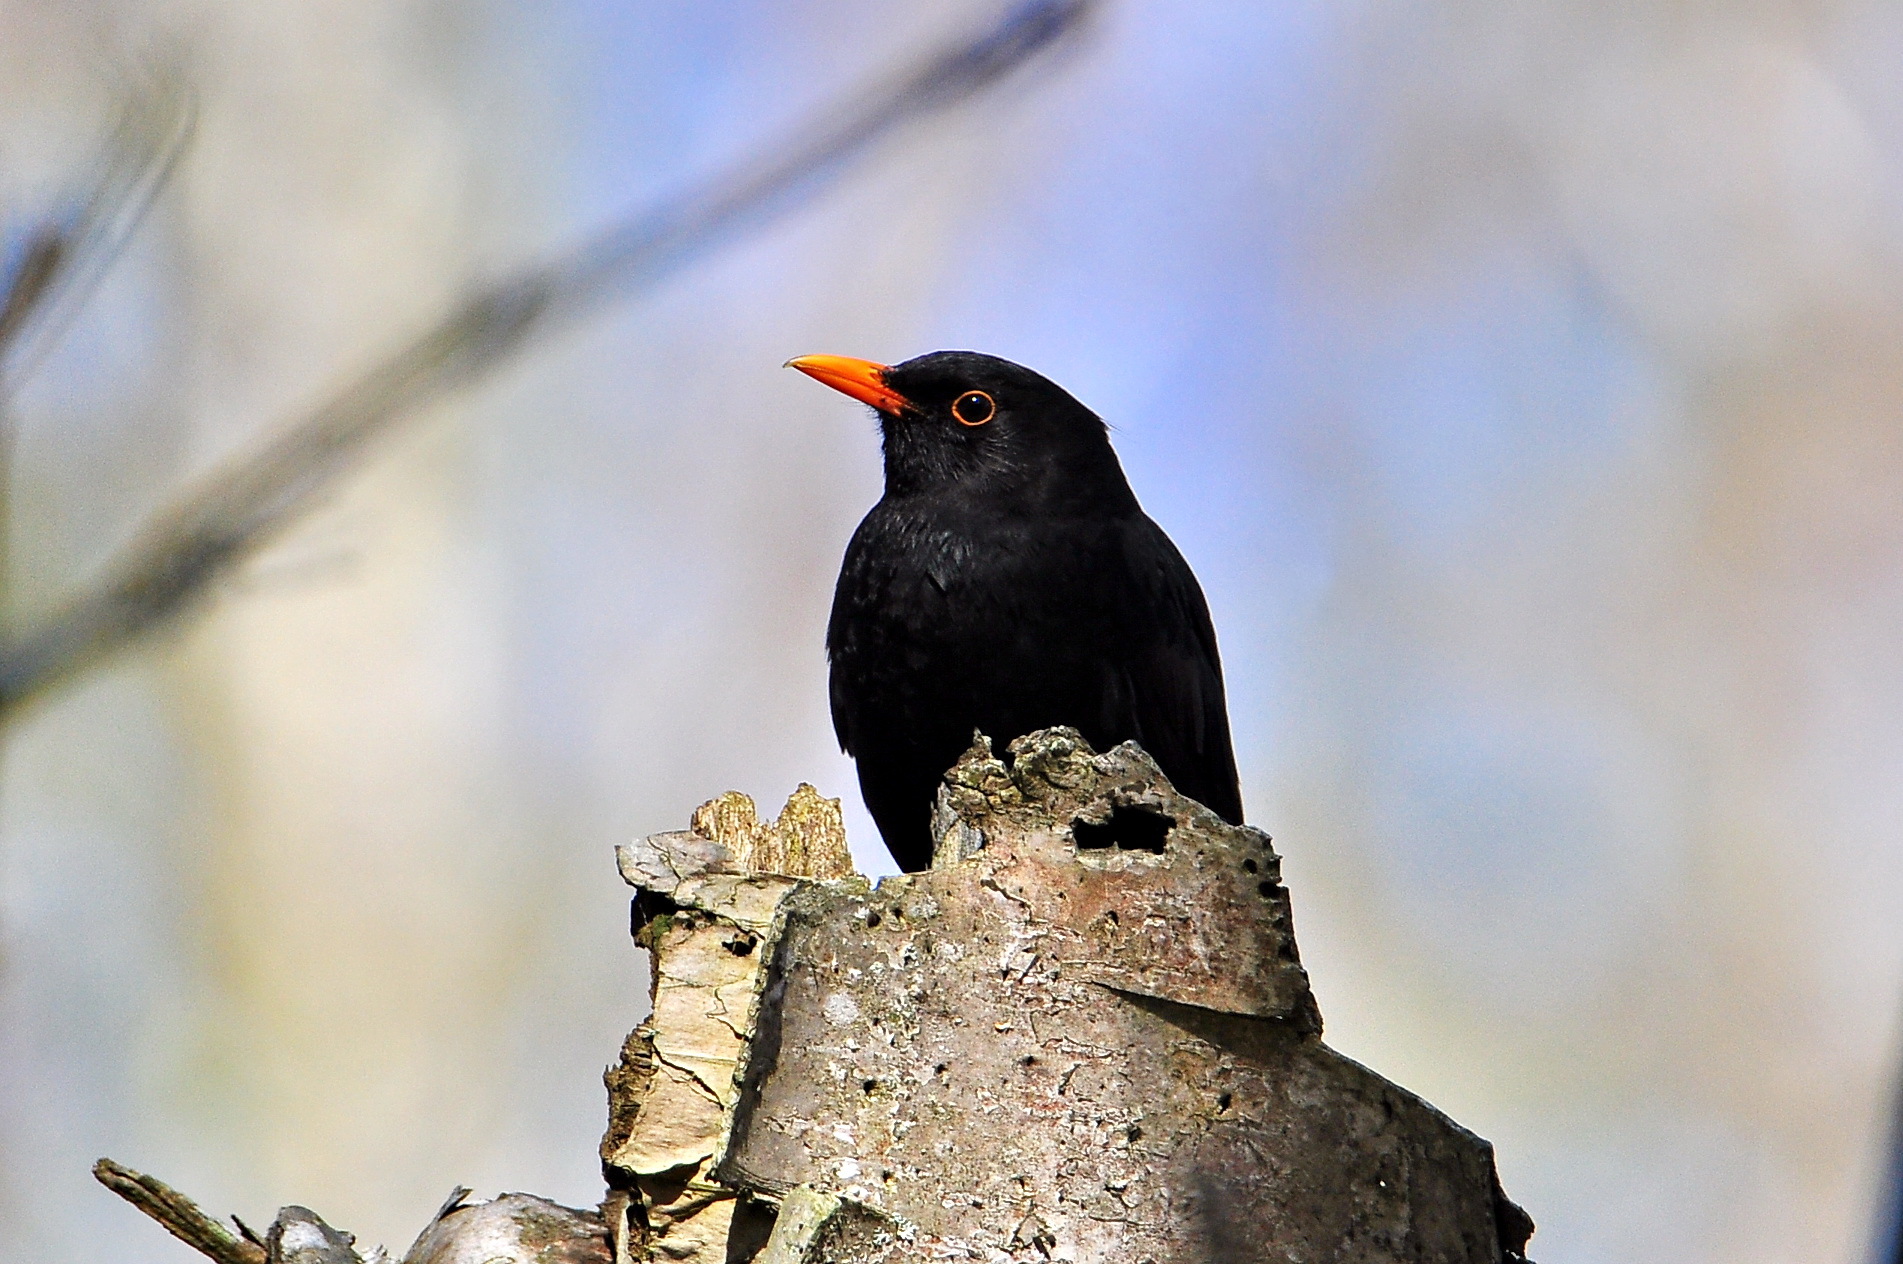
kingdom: Animalia
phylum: Chordata
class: Aves
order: Passeriformes
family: Turdidae
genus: Turdus
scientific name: Turdus merula
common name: Common blackbird
